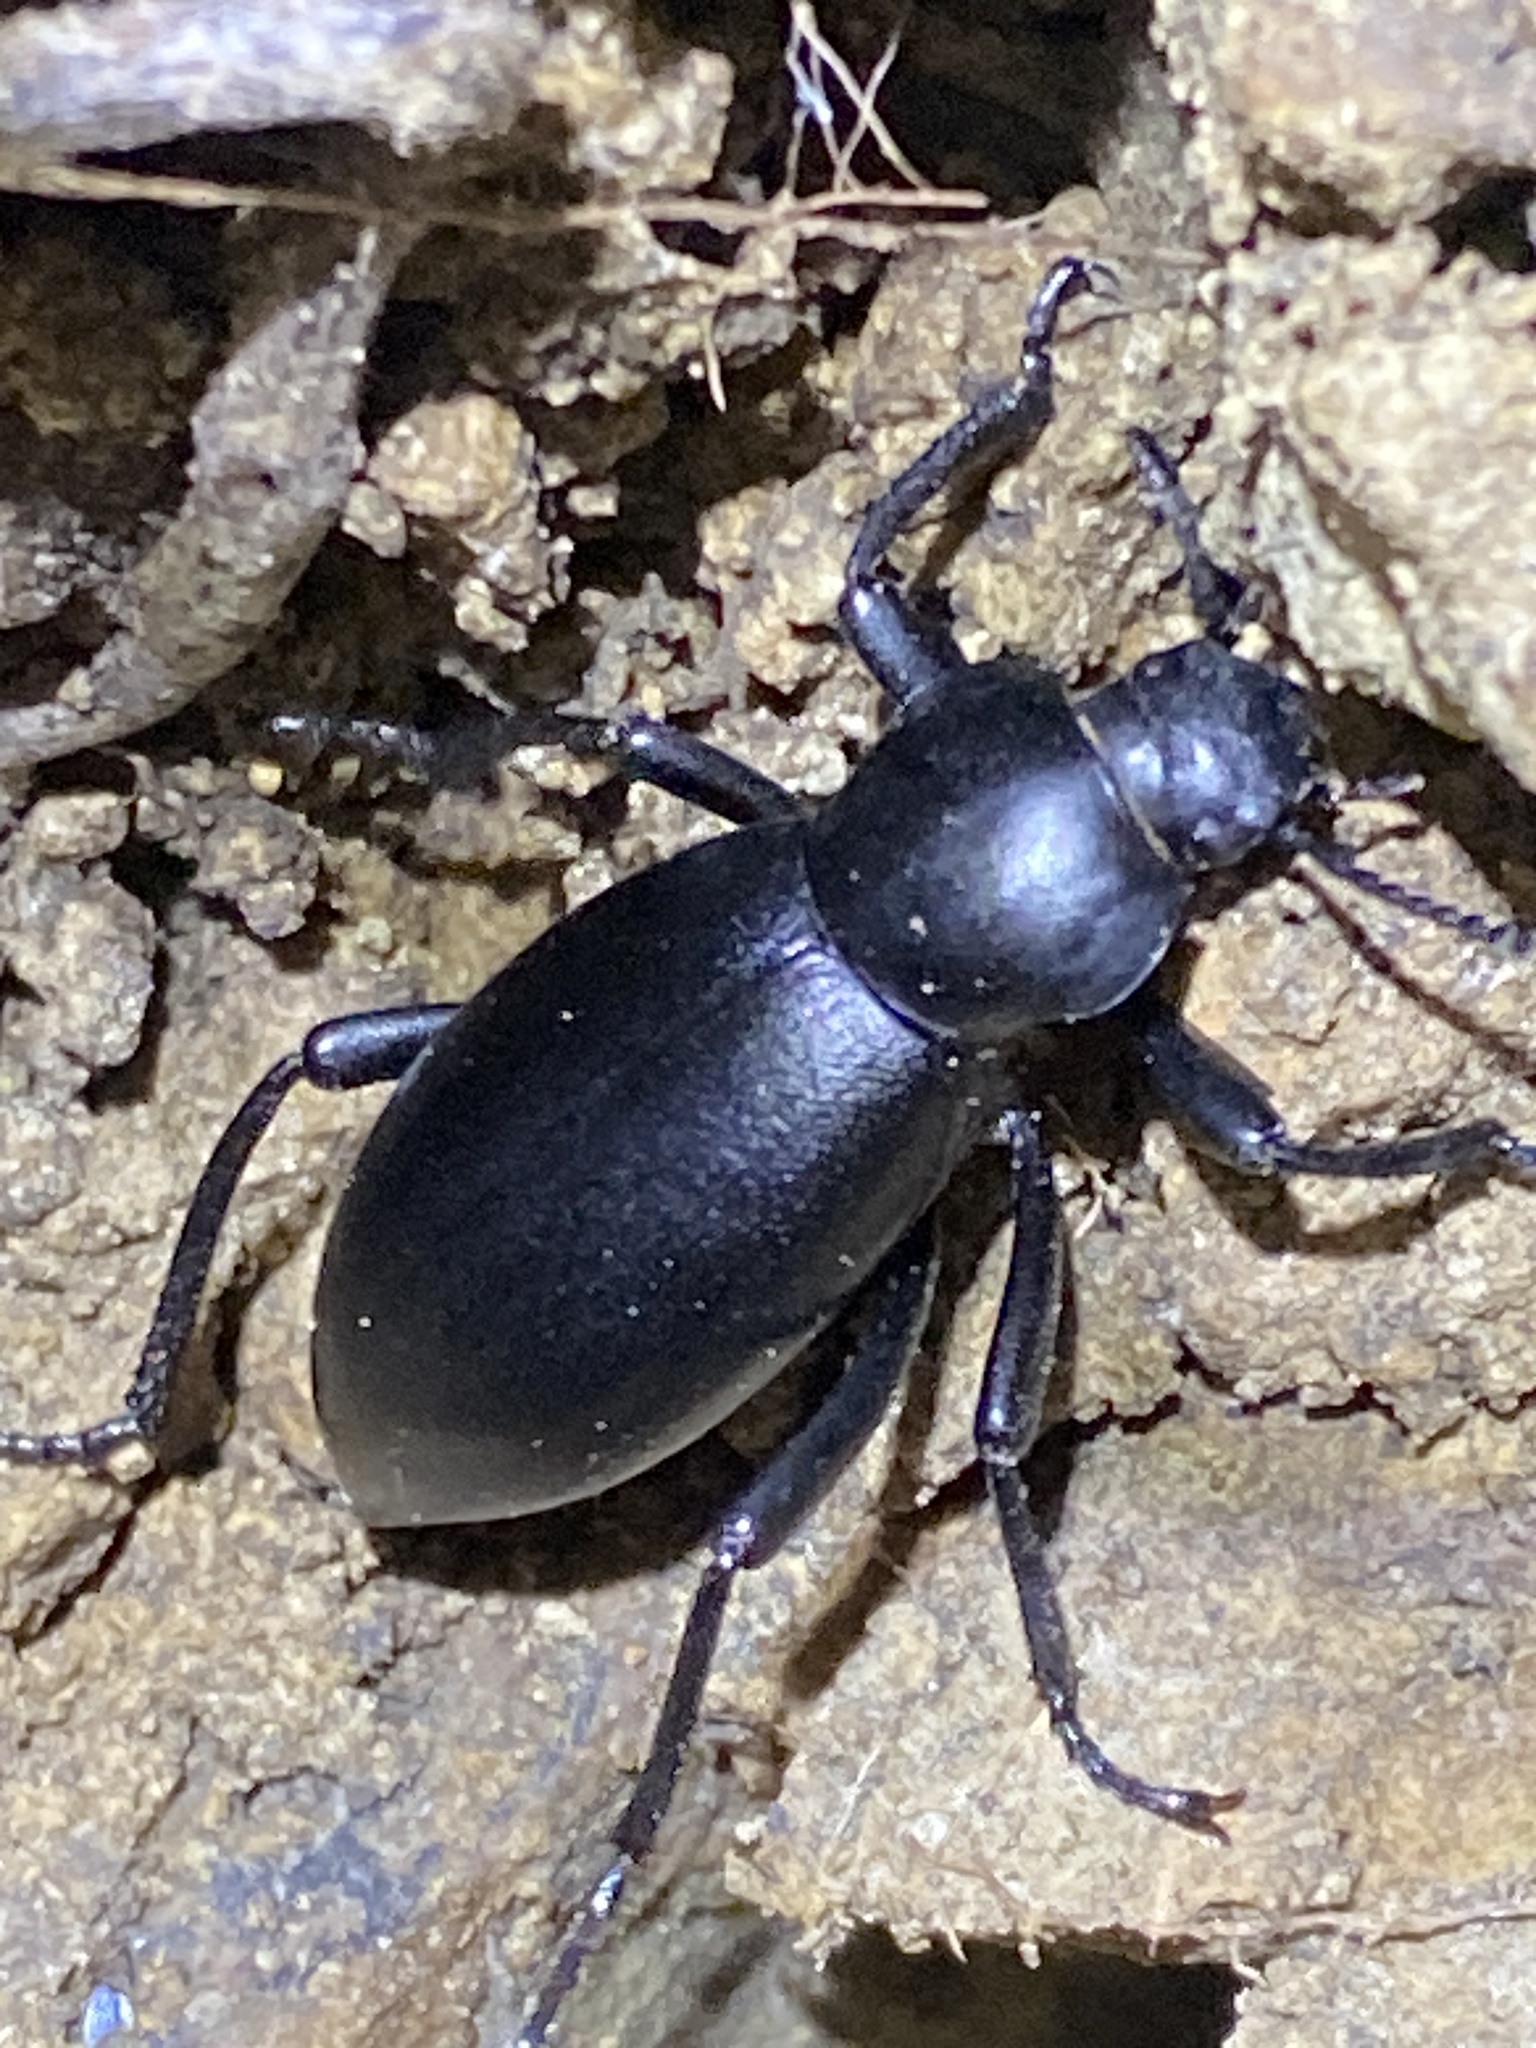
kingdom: Animalia
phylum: Arthropoda
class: Insecta
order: Coleoptera
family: Tenebrionidae
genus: Eleodes
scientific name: Eleodes dentipes
